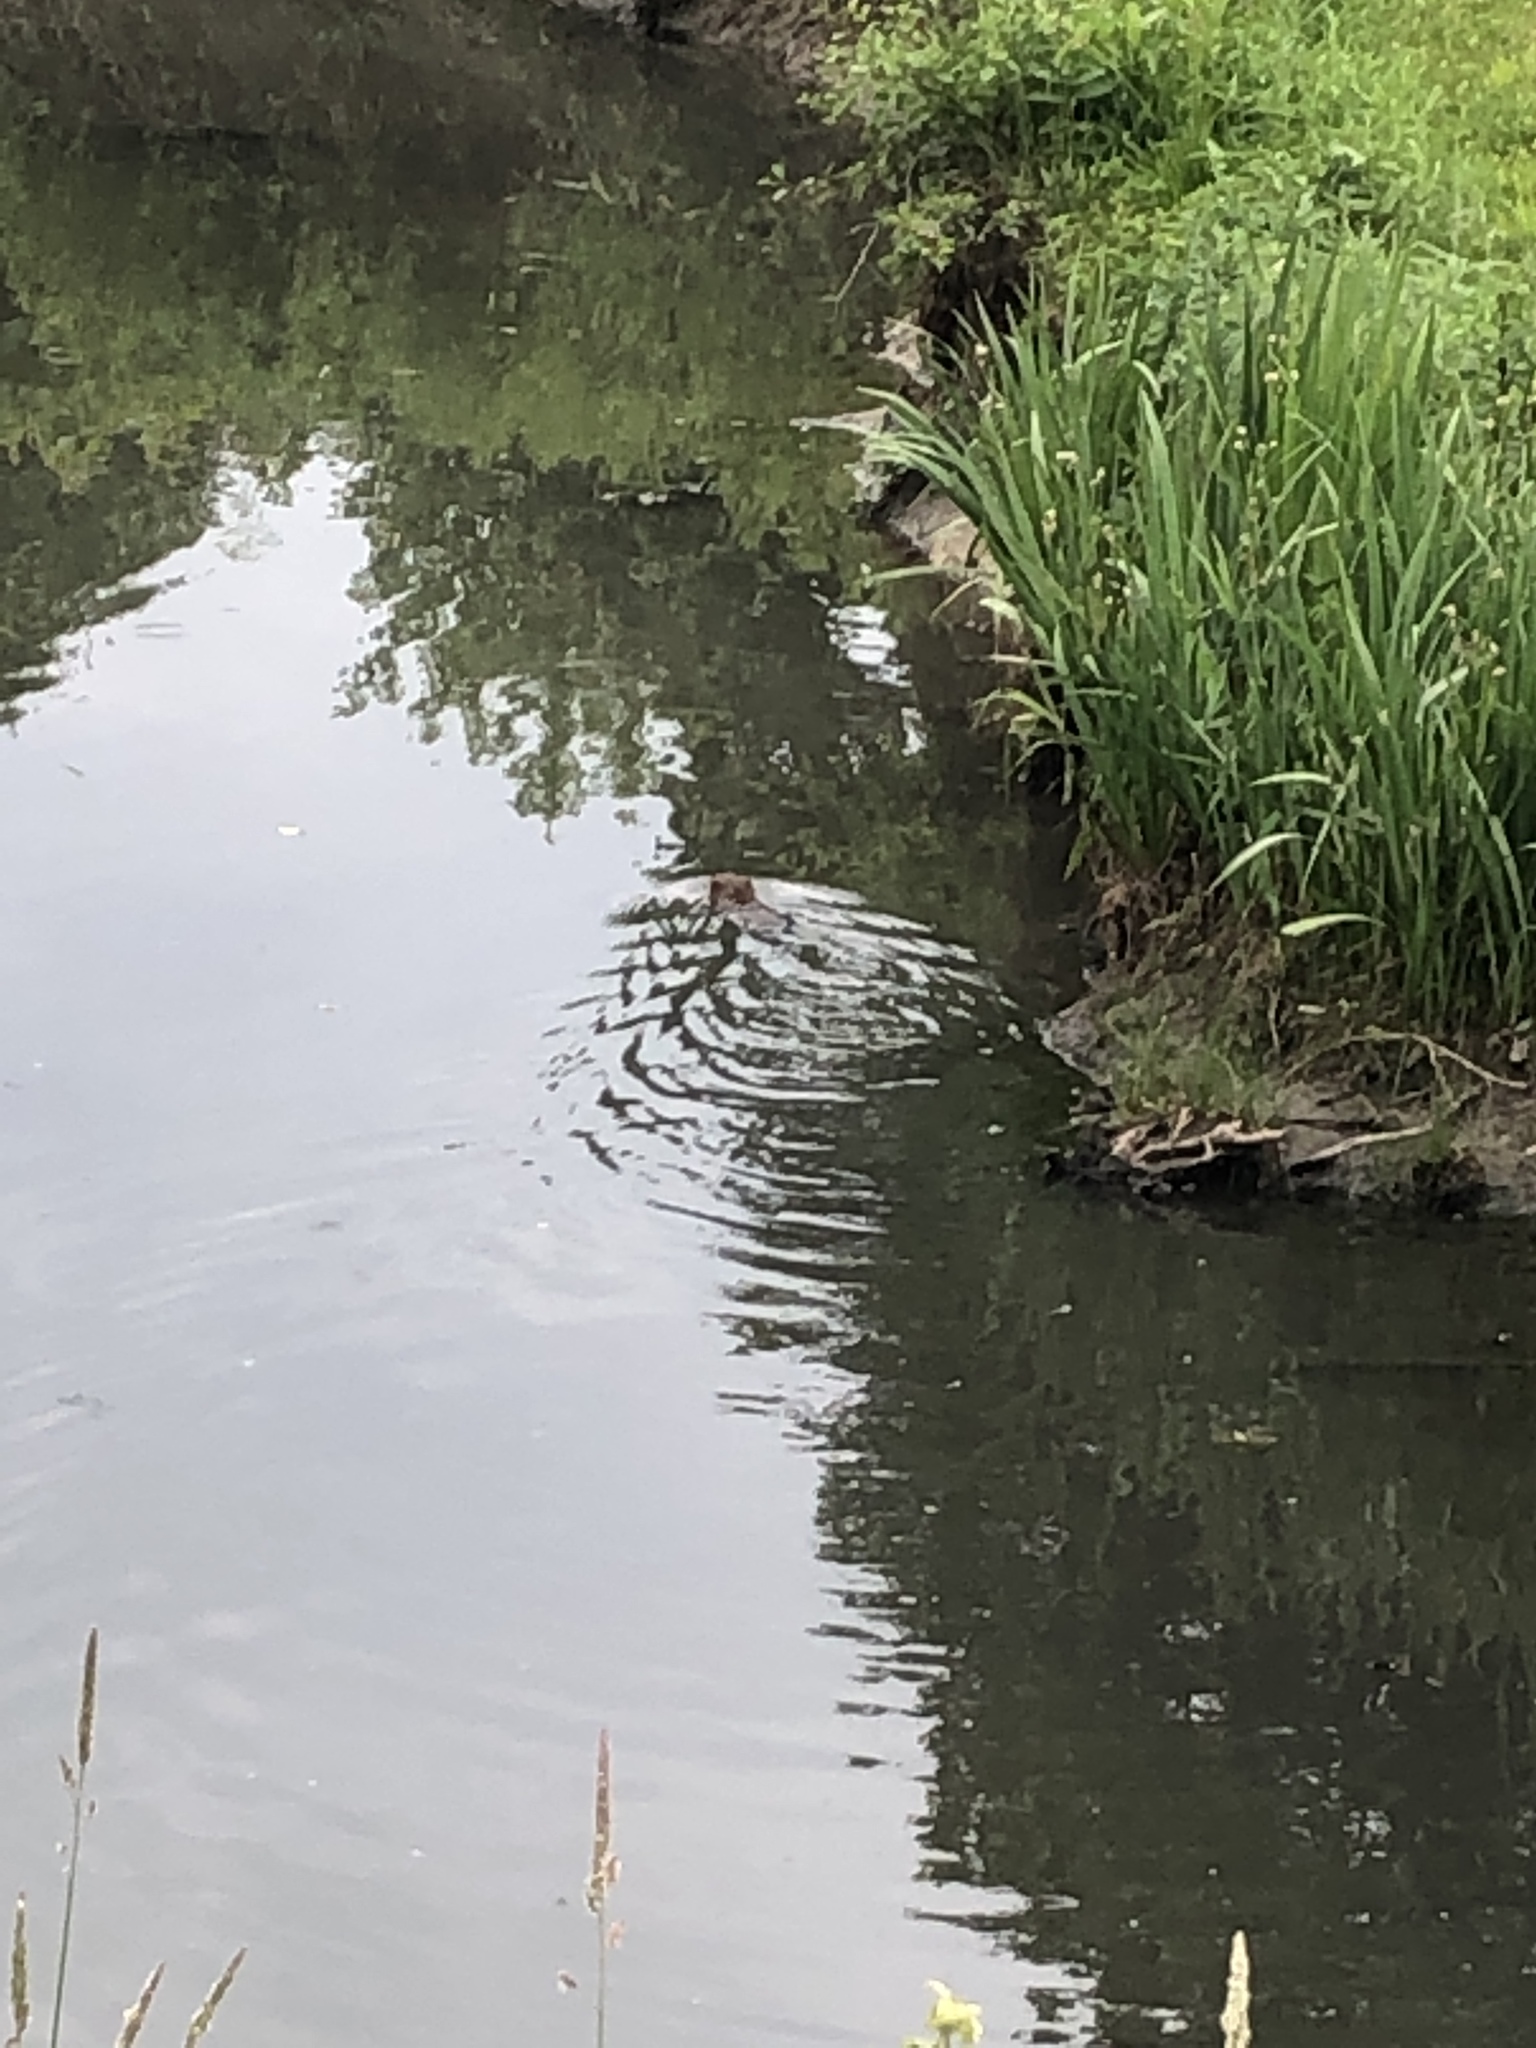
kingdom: Animalia
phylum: Chordata
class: Mammalia
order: Rodentia
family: Cricetidae
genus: Ondatra
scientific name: Ondatra zibethicus
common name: Muskrat
